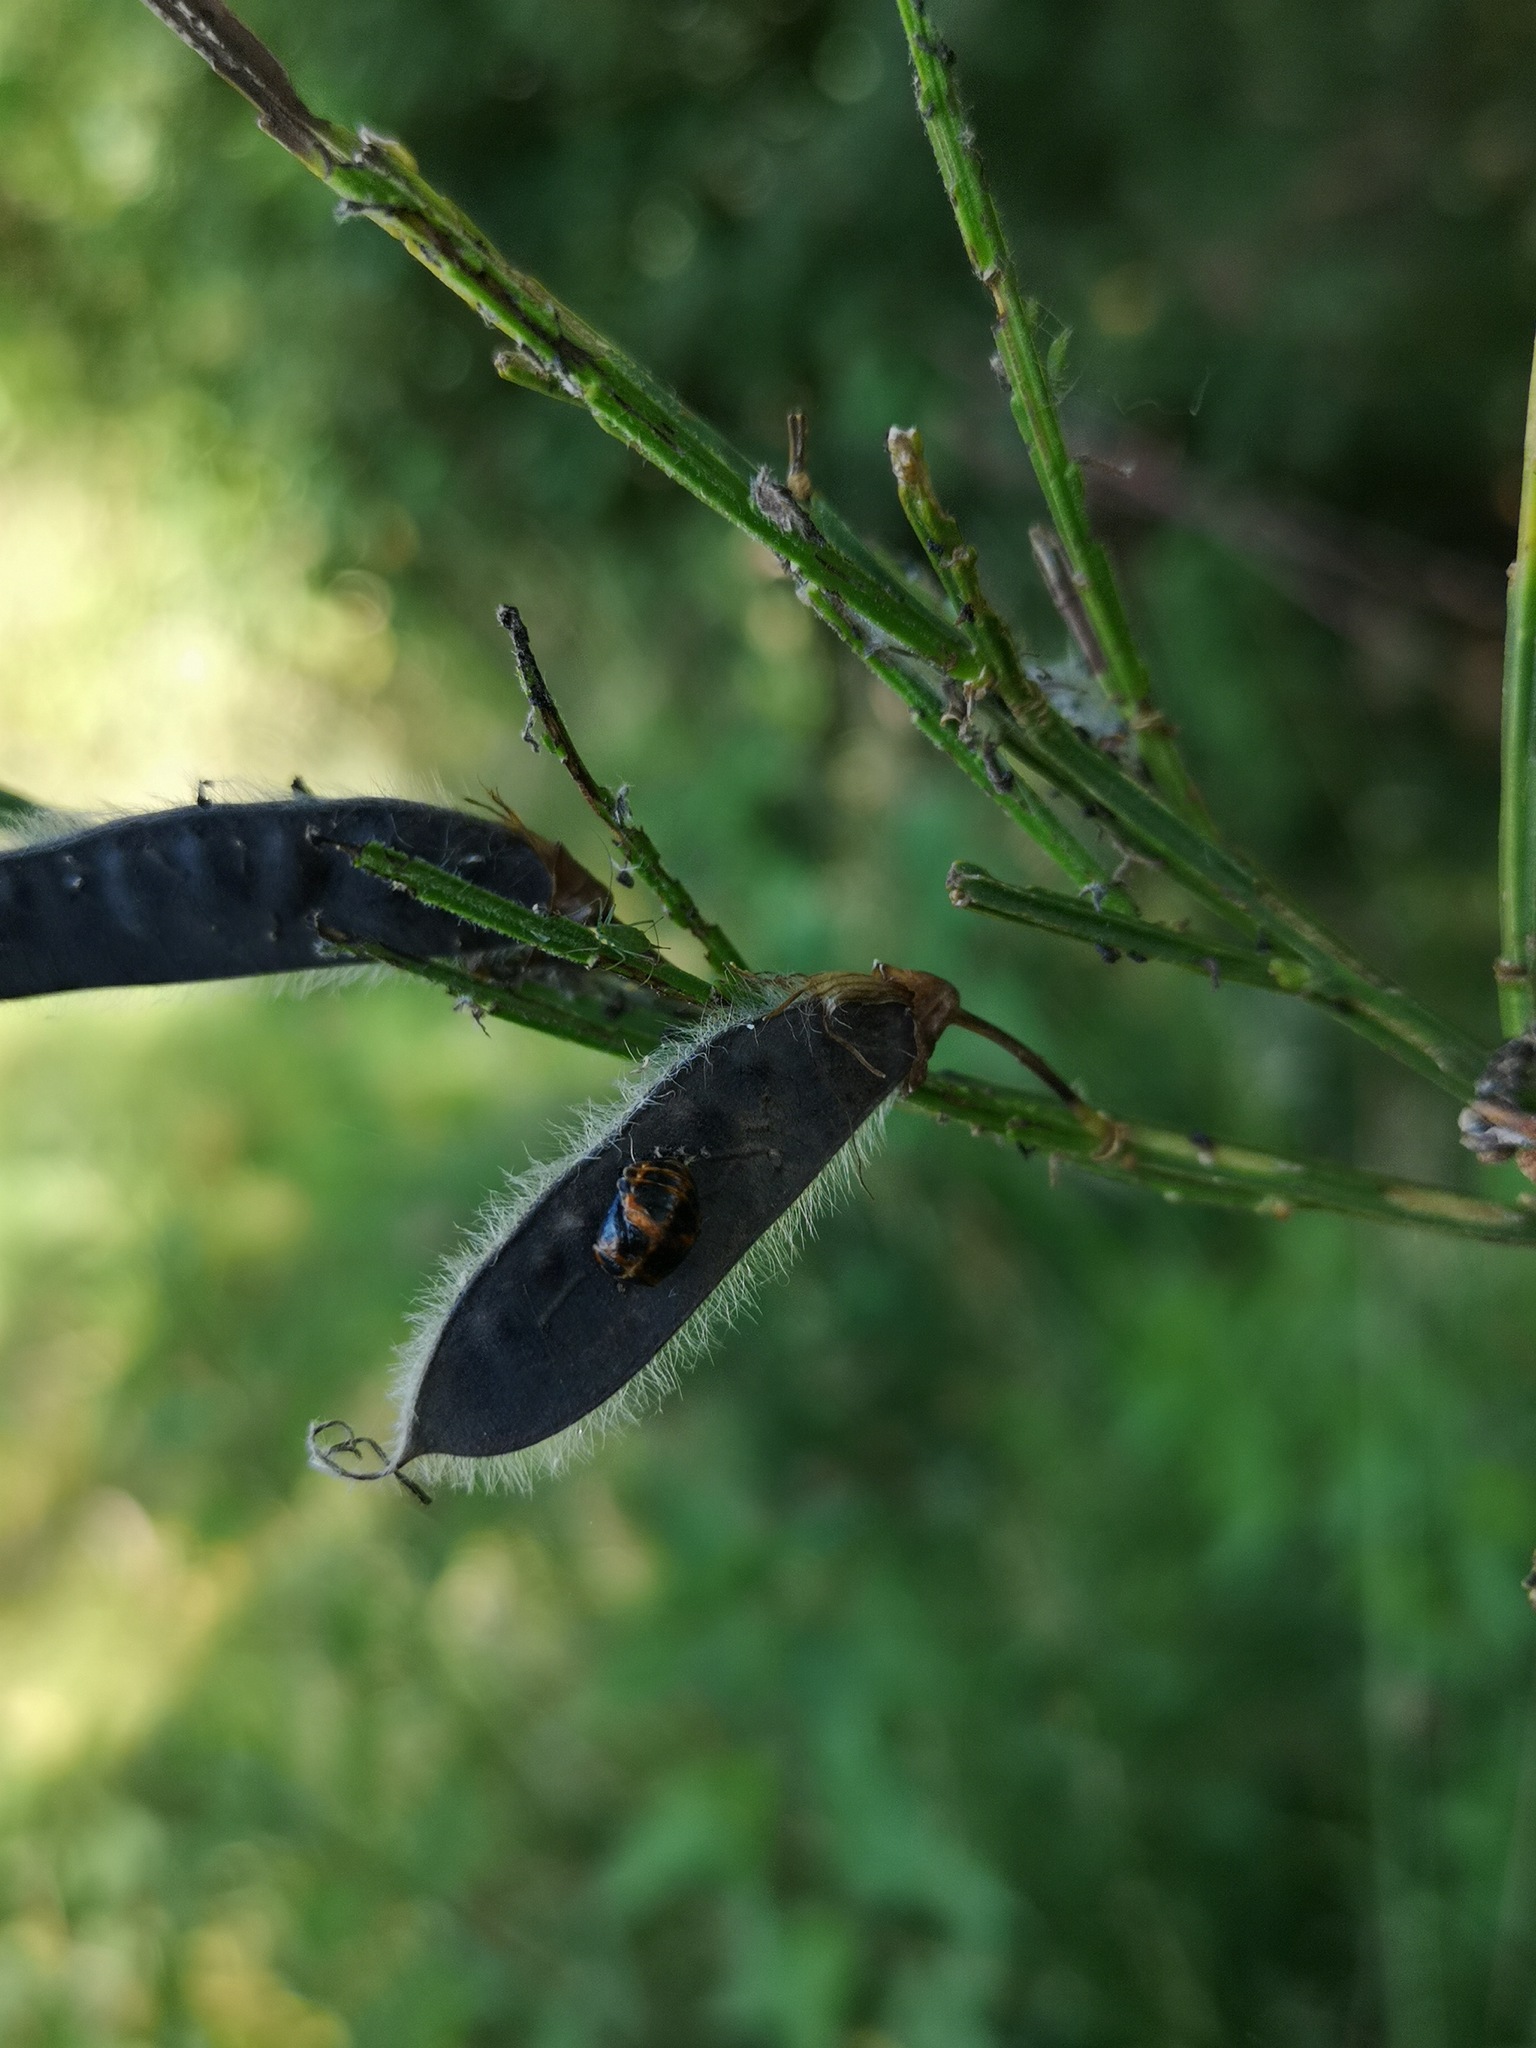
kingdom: Animalia
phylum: Arthropoda
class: Insecta
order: Coleoptera
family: Coccinellidae
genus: Harmonia
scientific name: Harmonia axyridis
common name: Harlequin ladybird
